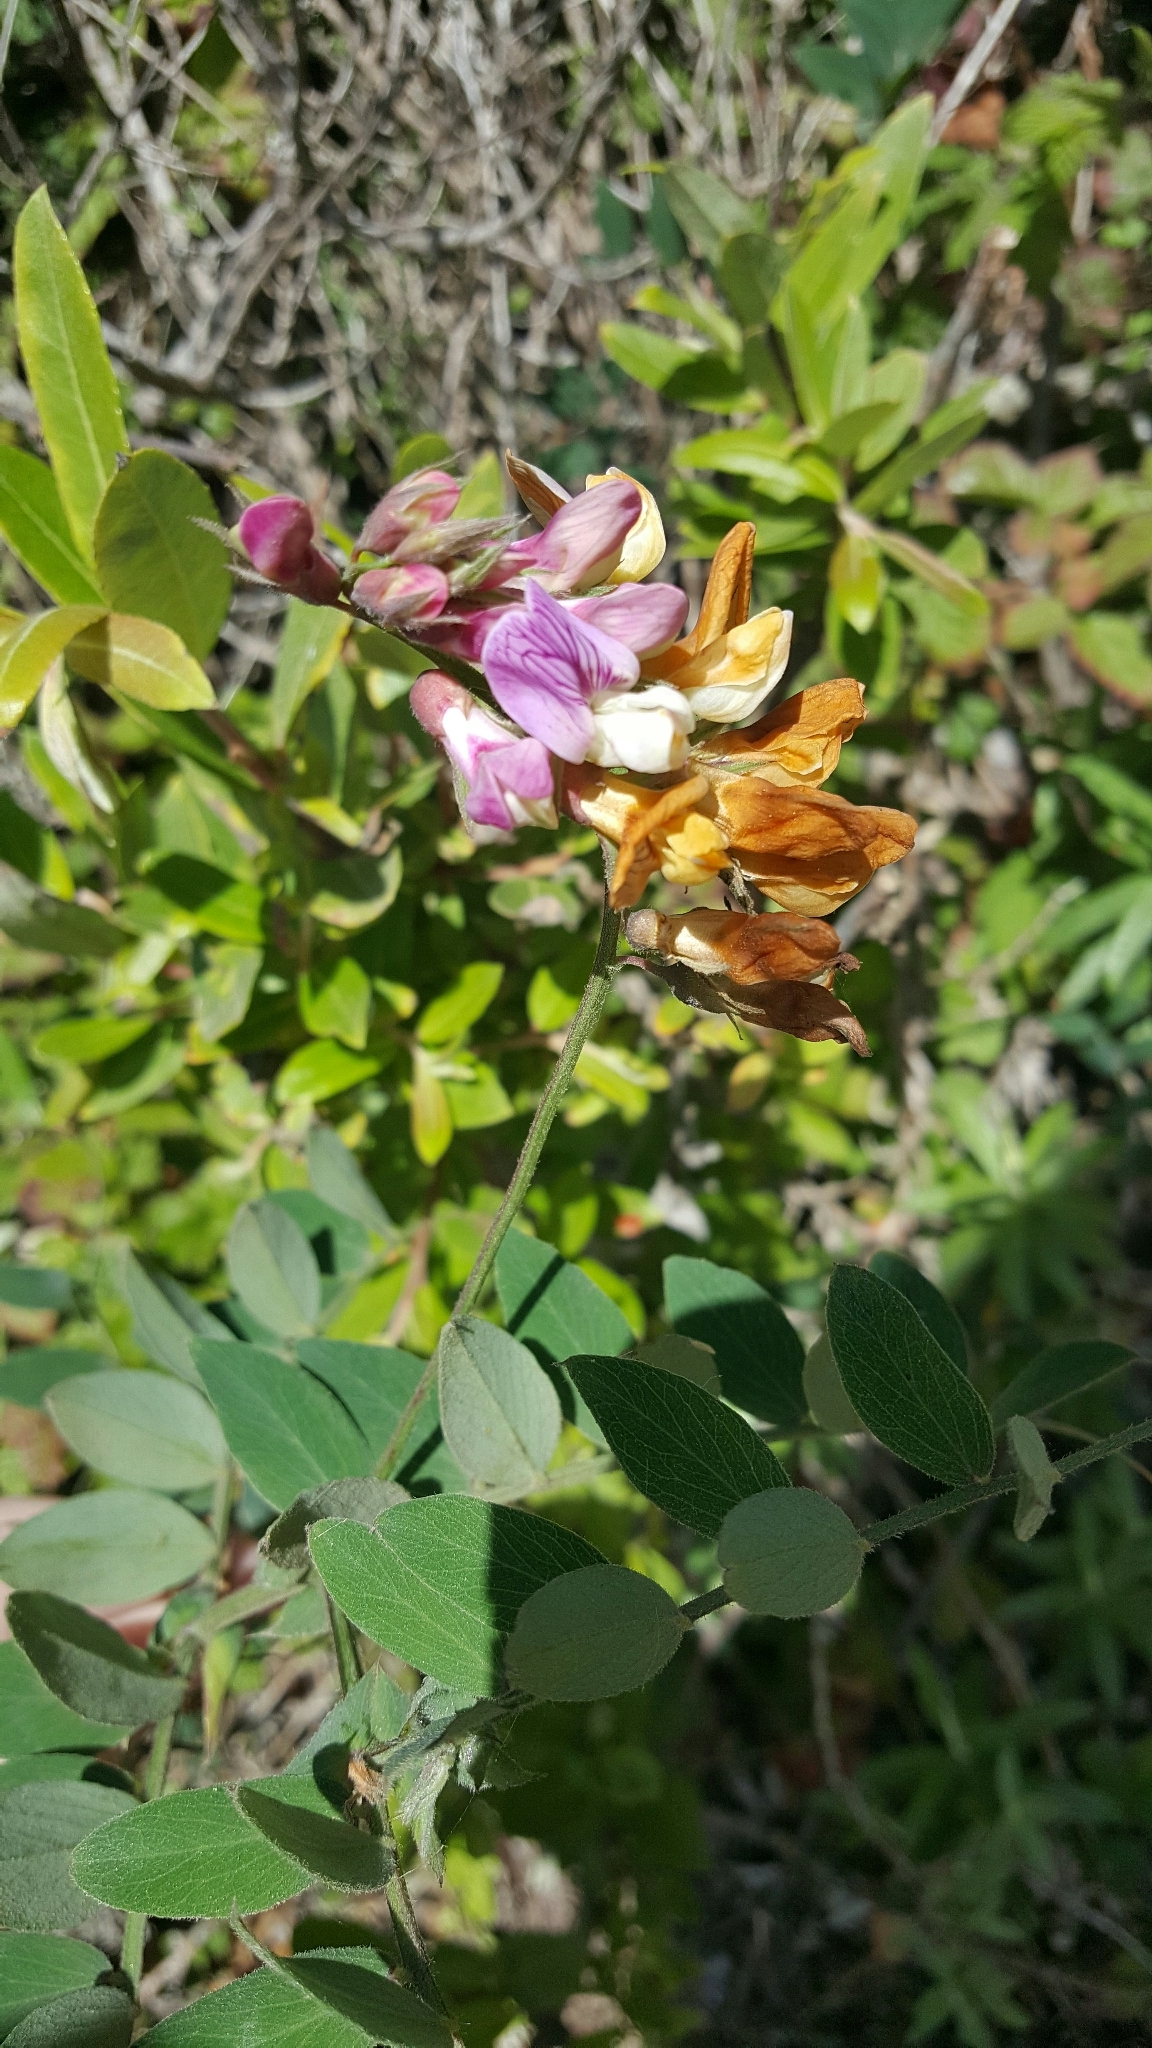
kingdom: Plantae
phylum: Tracheophyta
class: Magnoliopsida
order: Fabales
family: Fabaceae
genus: Lathyrus
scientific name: Lathyrus vestitus
